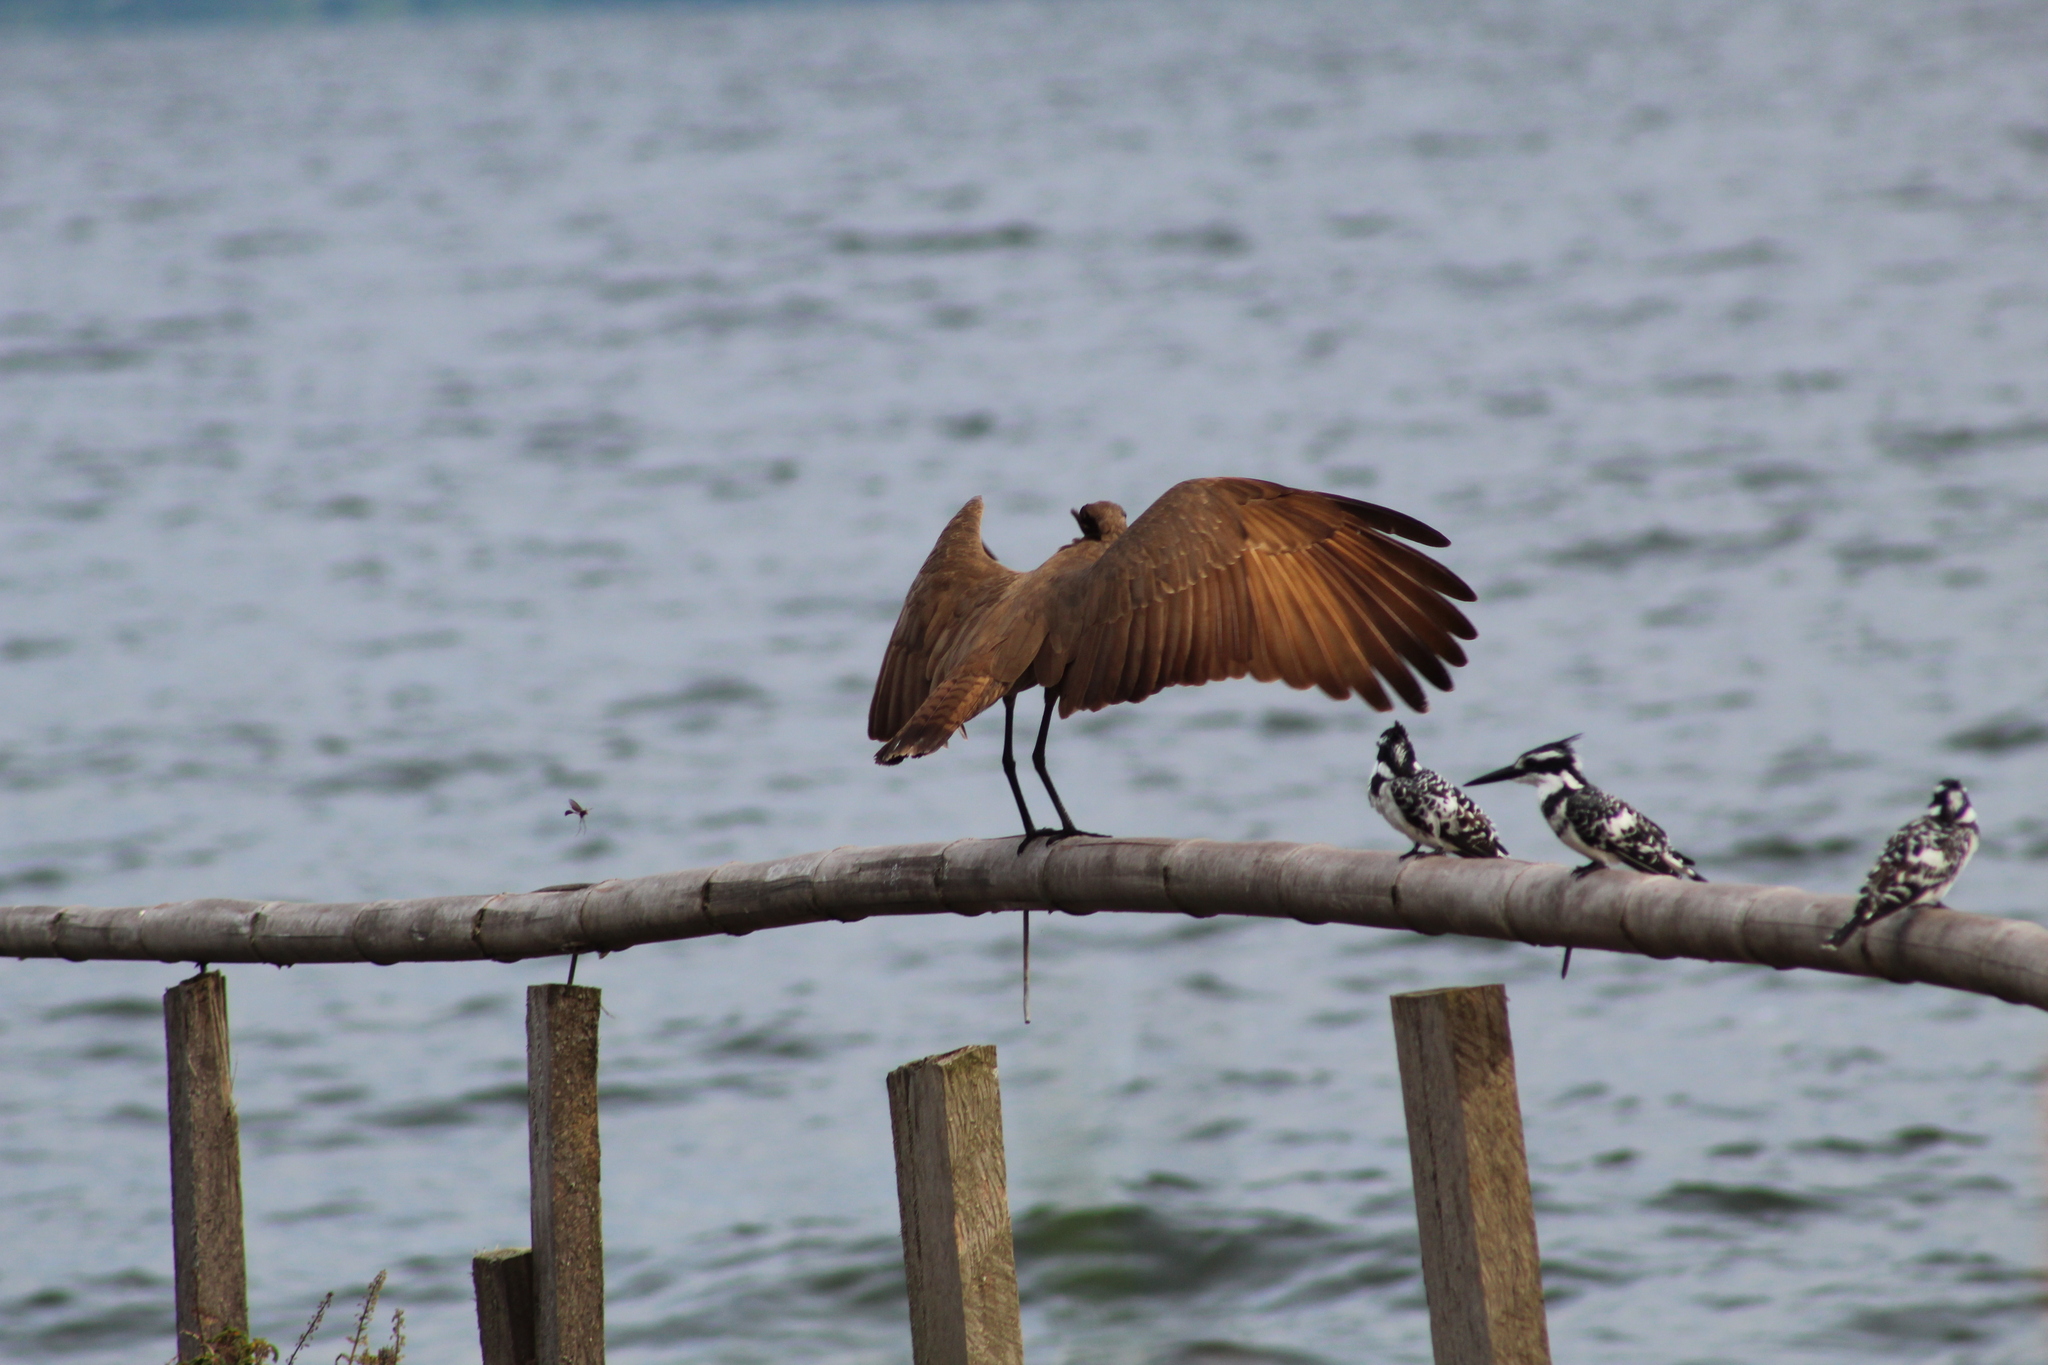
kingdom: Animalia
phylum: Chordata
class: Aves
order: Pelecaniformes
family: Scopidae
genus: Scopus
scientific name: Scopus umbretta
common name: Hamerkop
